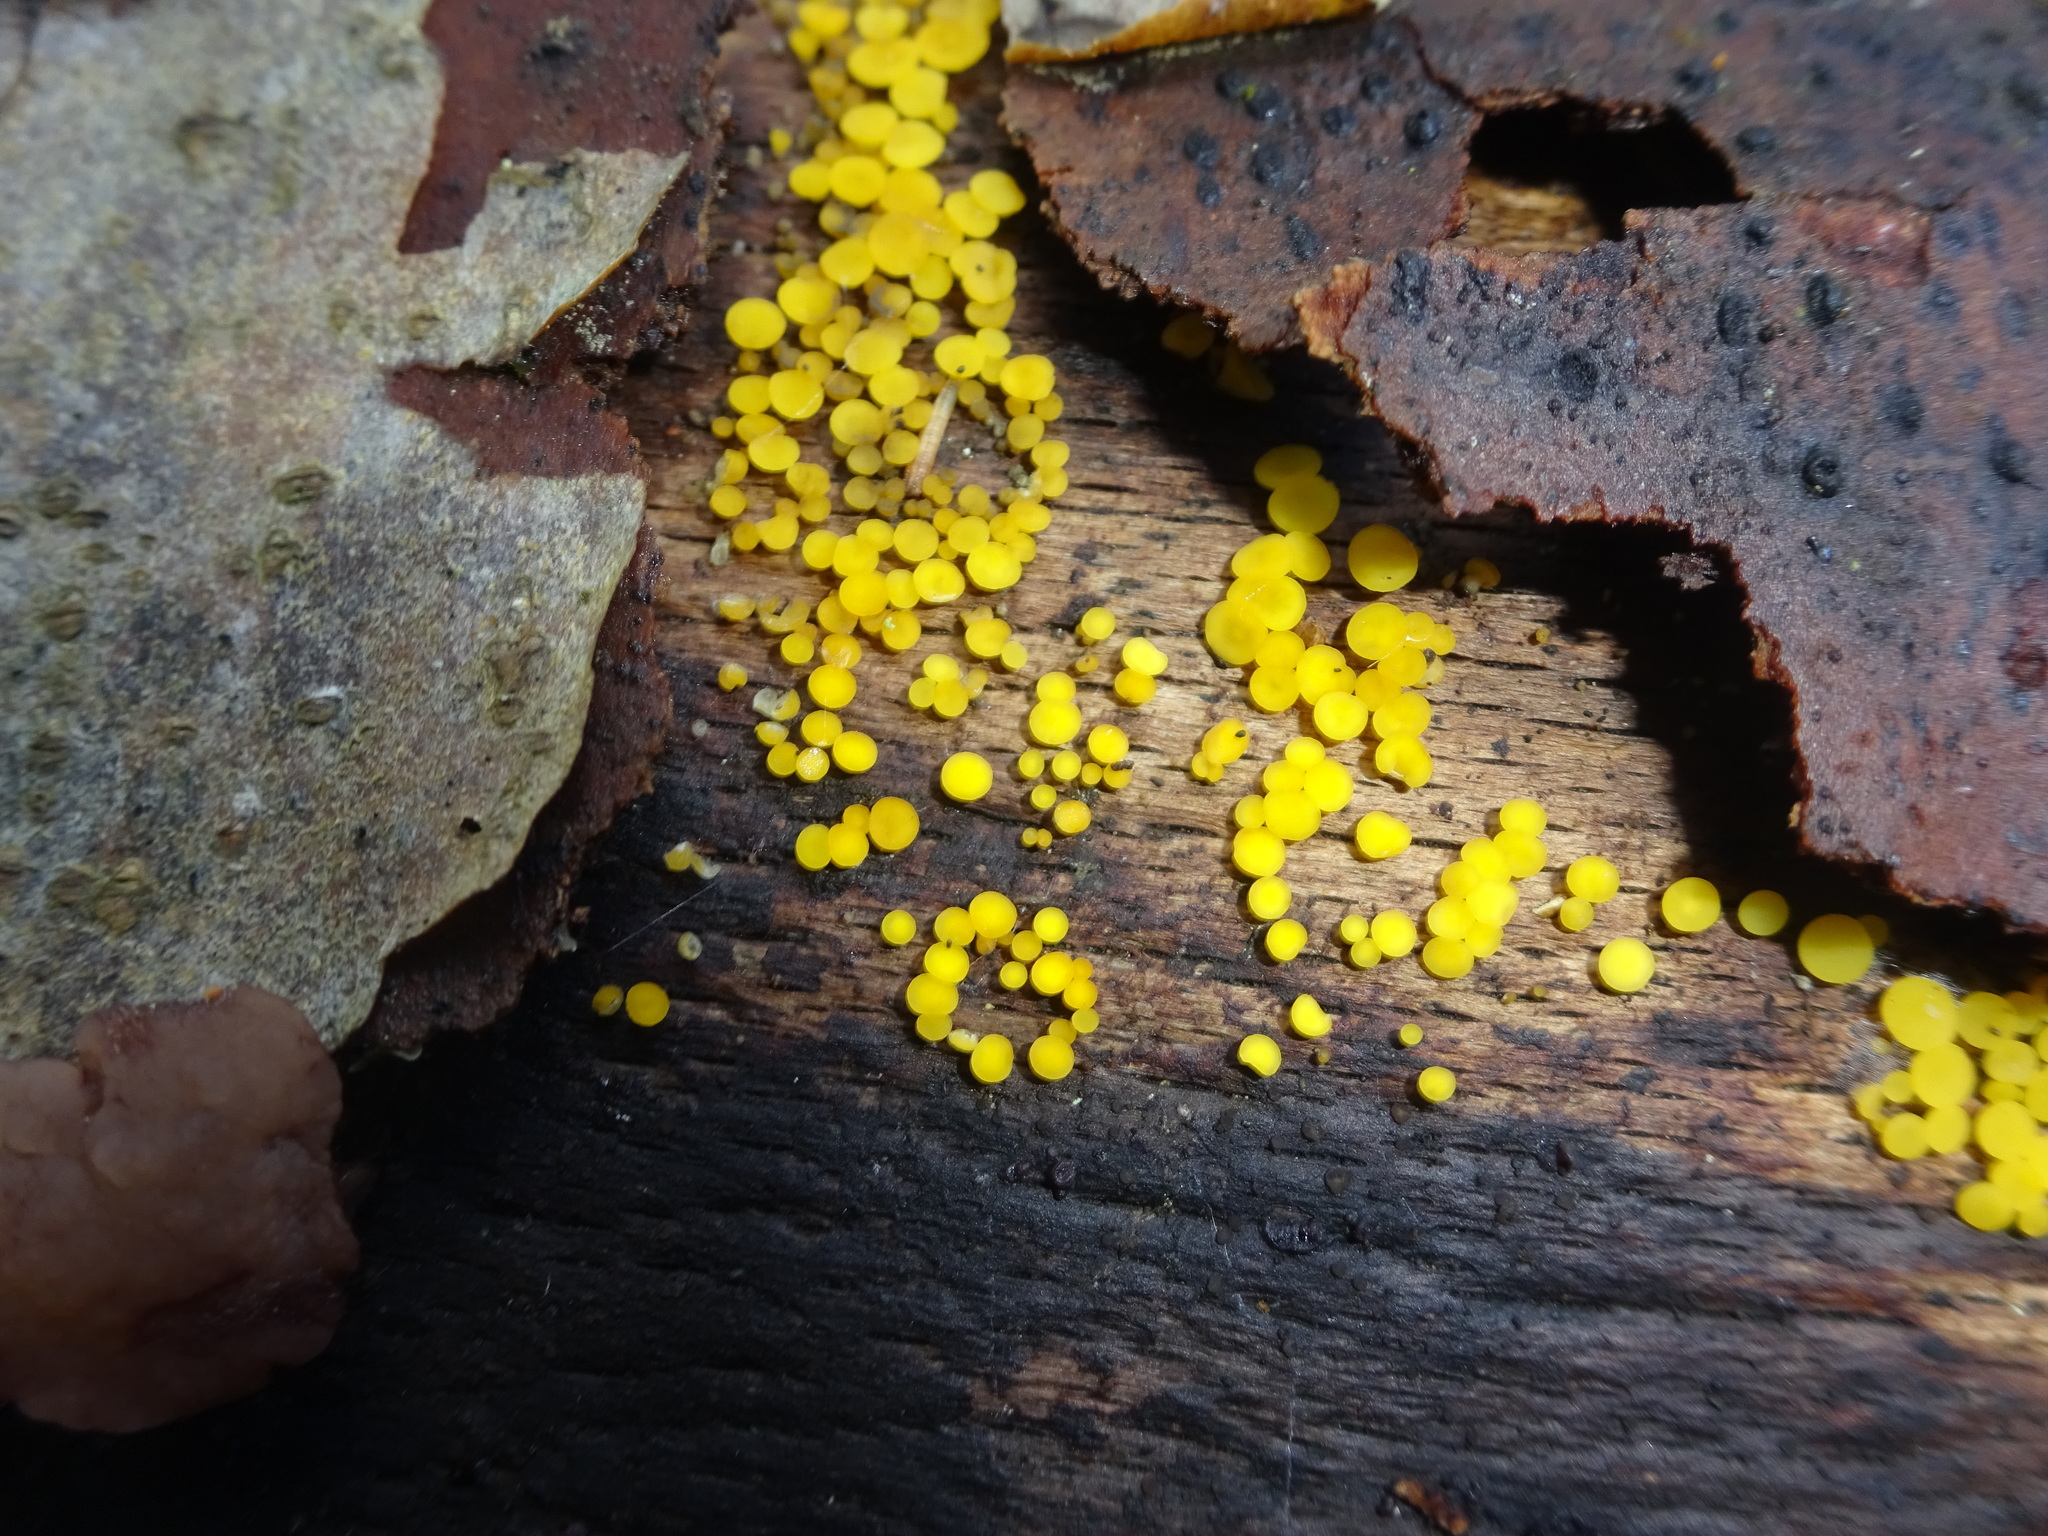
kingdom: Fungi
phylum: Ascomycota
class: Leotiomycetes
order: Helotiales
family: Pezizellaceae
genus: Calycina
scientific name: Calycina citrina
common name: Yellow fairy cups
